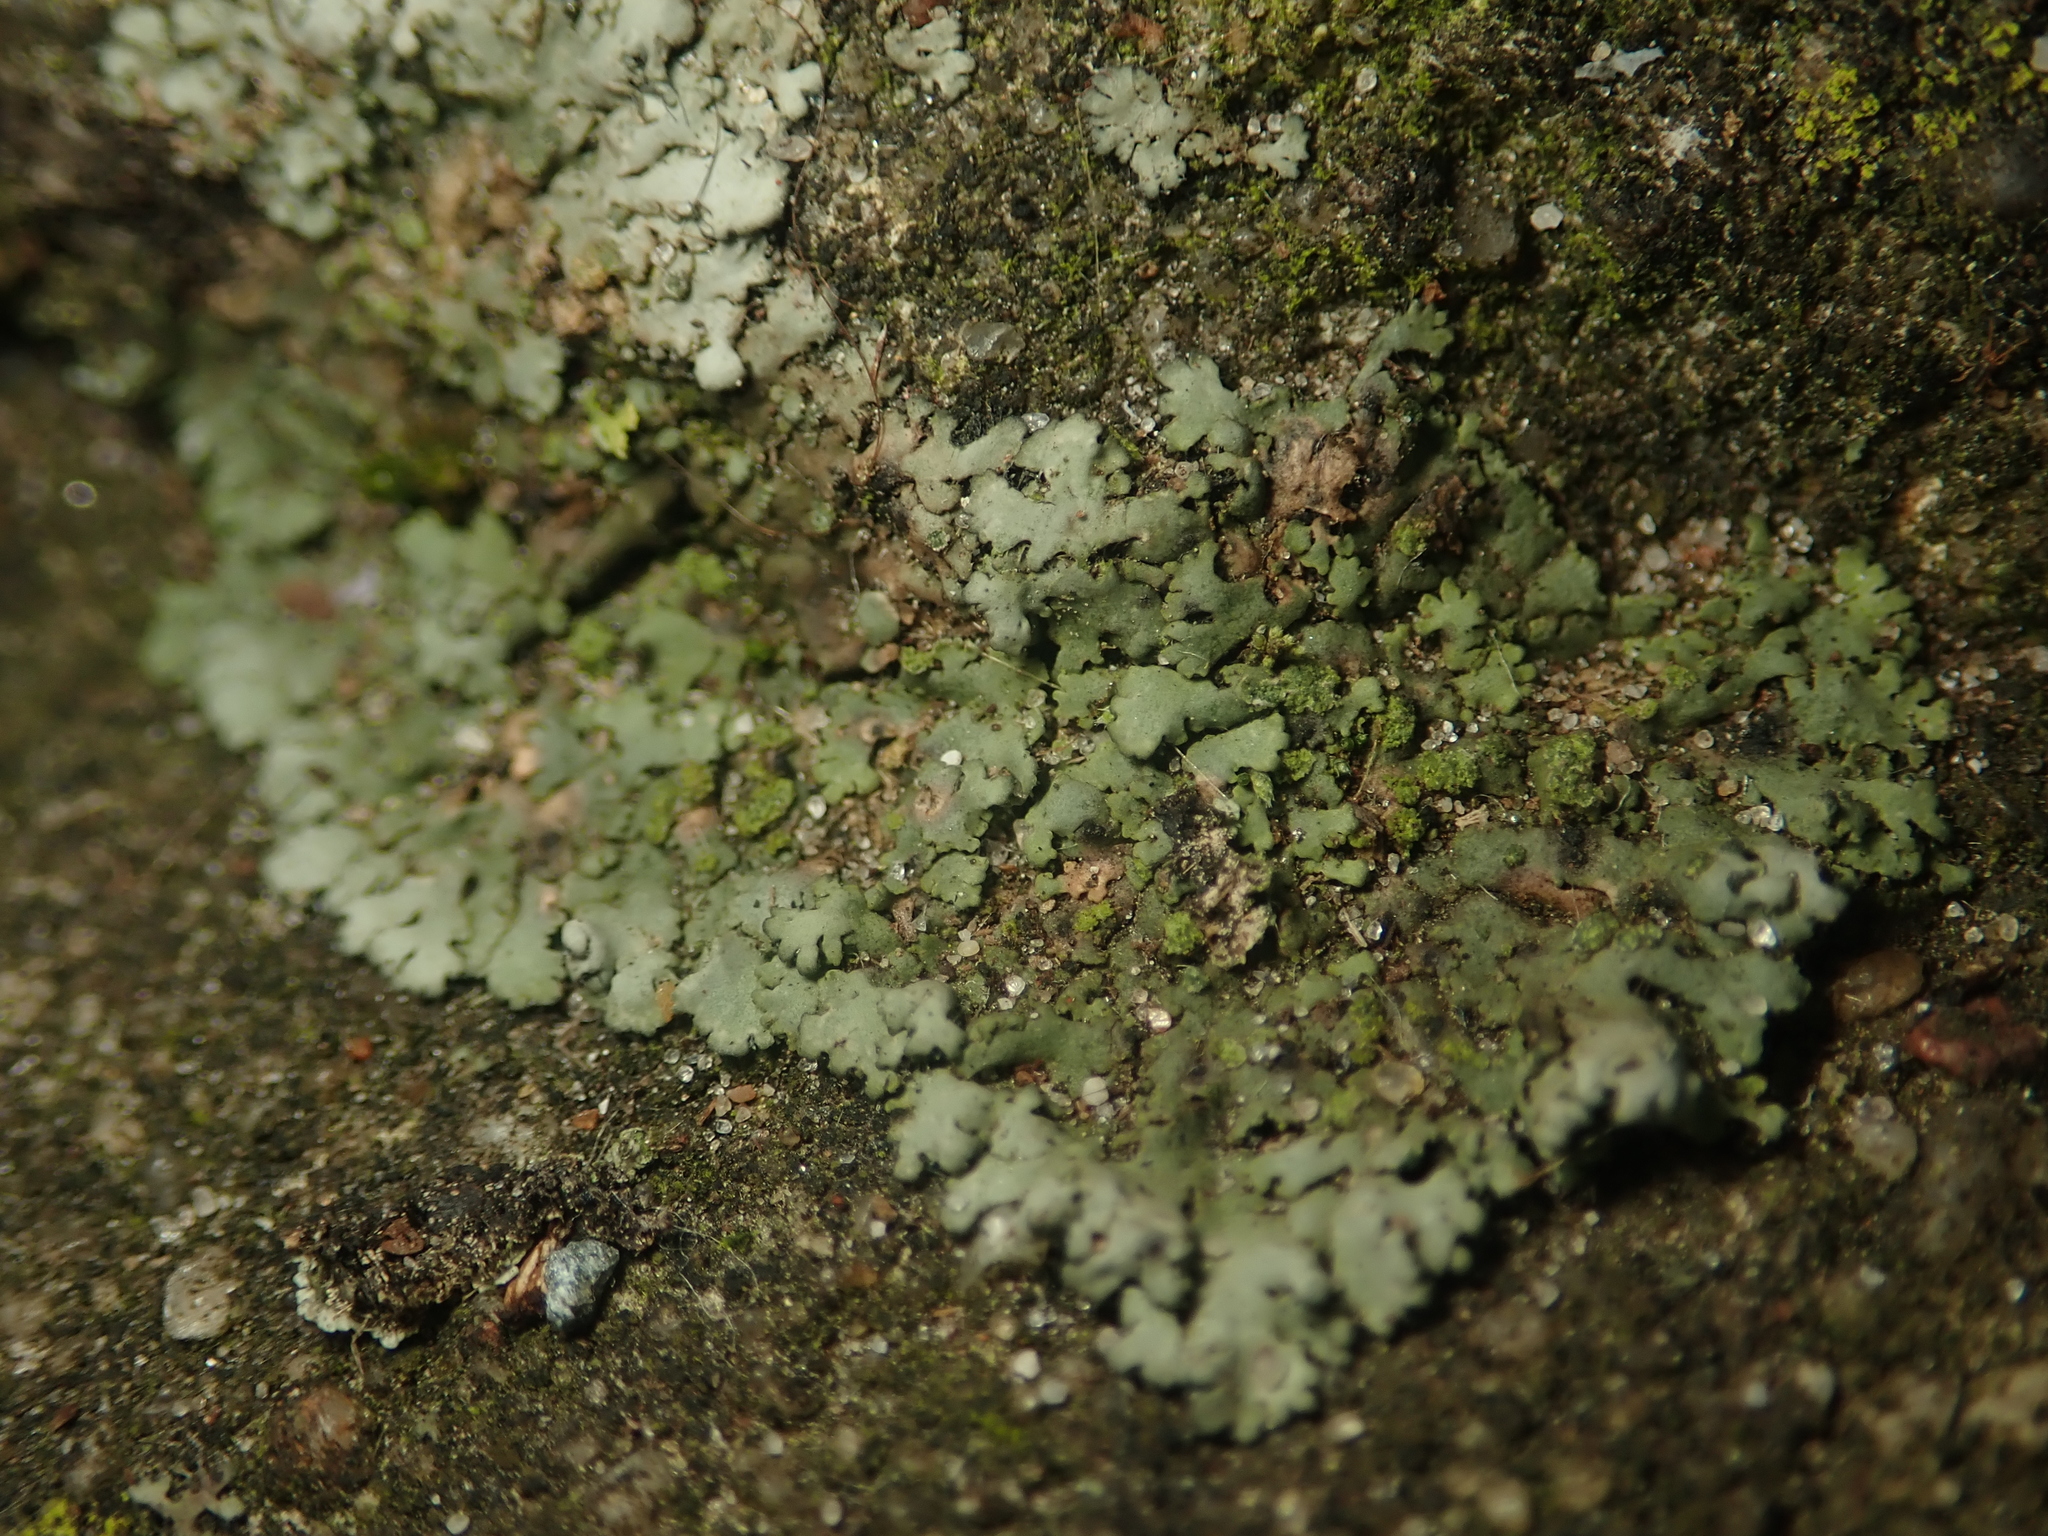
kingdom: Fungi
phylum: Ascomycota
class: Lecanoromycetes
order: Caliciales
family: Physciaceae
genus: Phaeophyscia
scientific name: Phaeophyscia orbicularis
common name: Mealy shadow lichen
